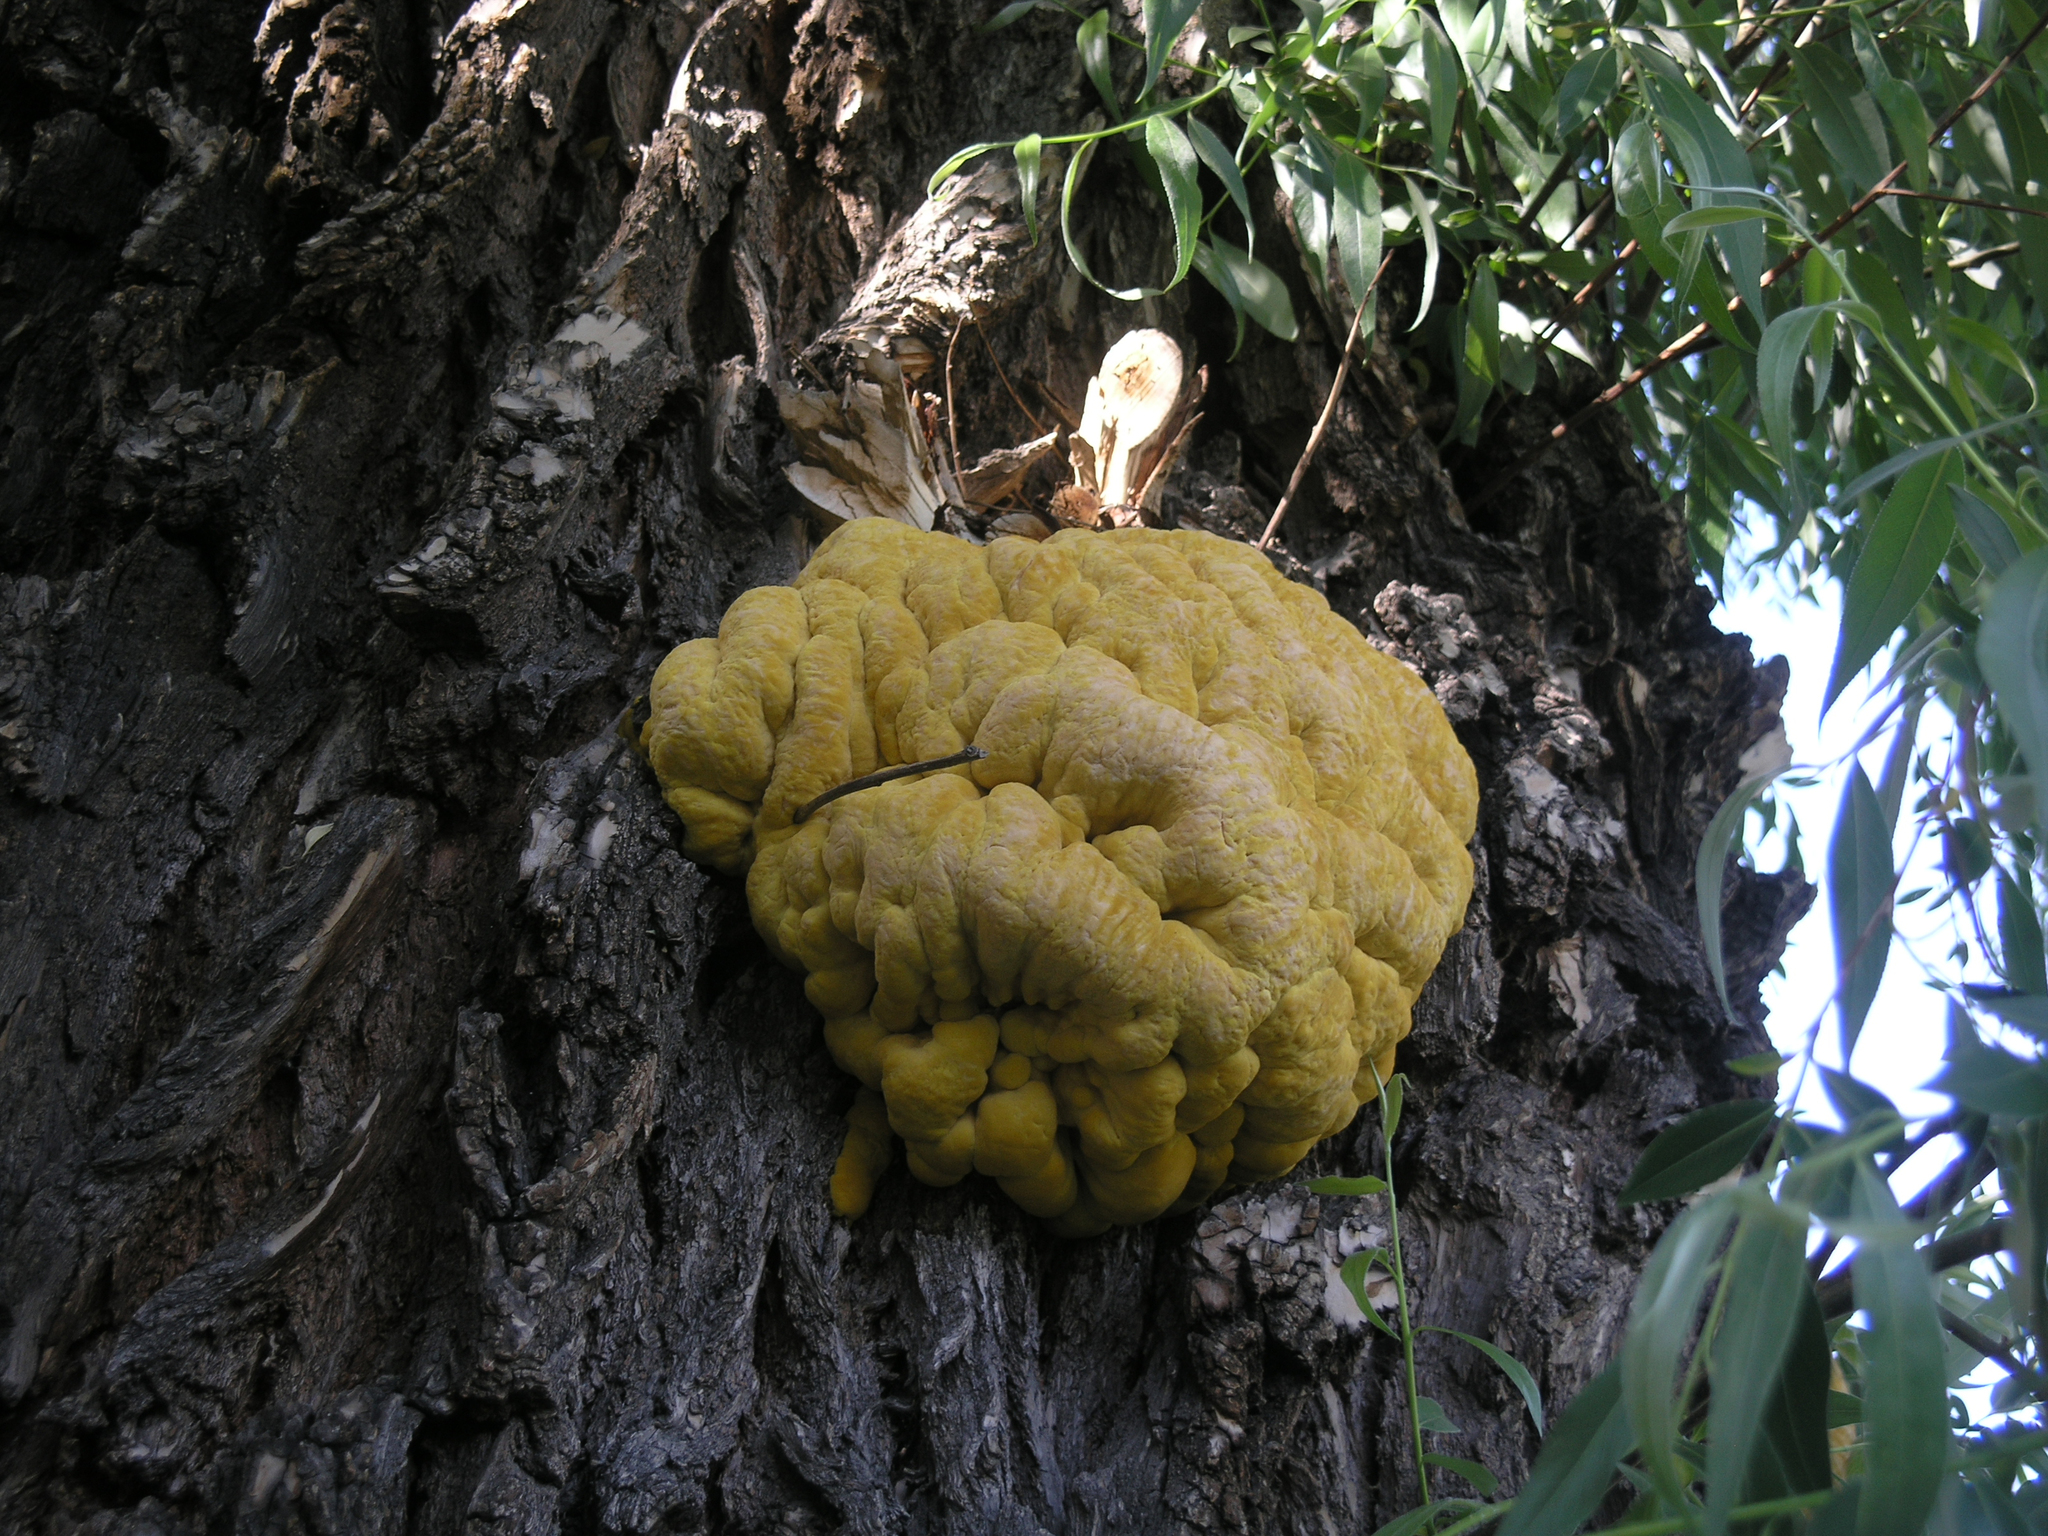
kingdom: Fungi
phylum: Basidiomycota
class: Agaricomycetes
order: Polyporales
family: Laetiporaceae
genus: Laetiporus
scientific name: Laetiporus sulphureus
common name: Chicken of the woods
